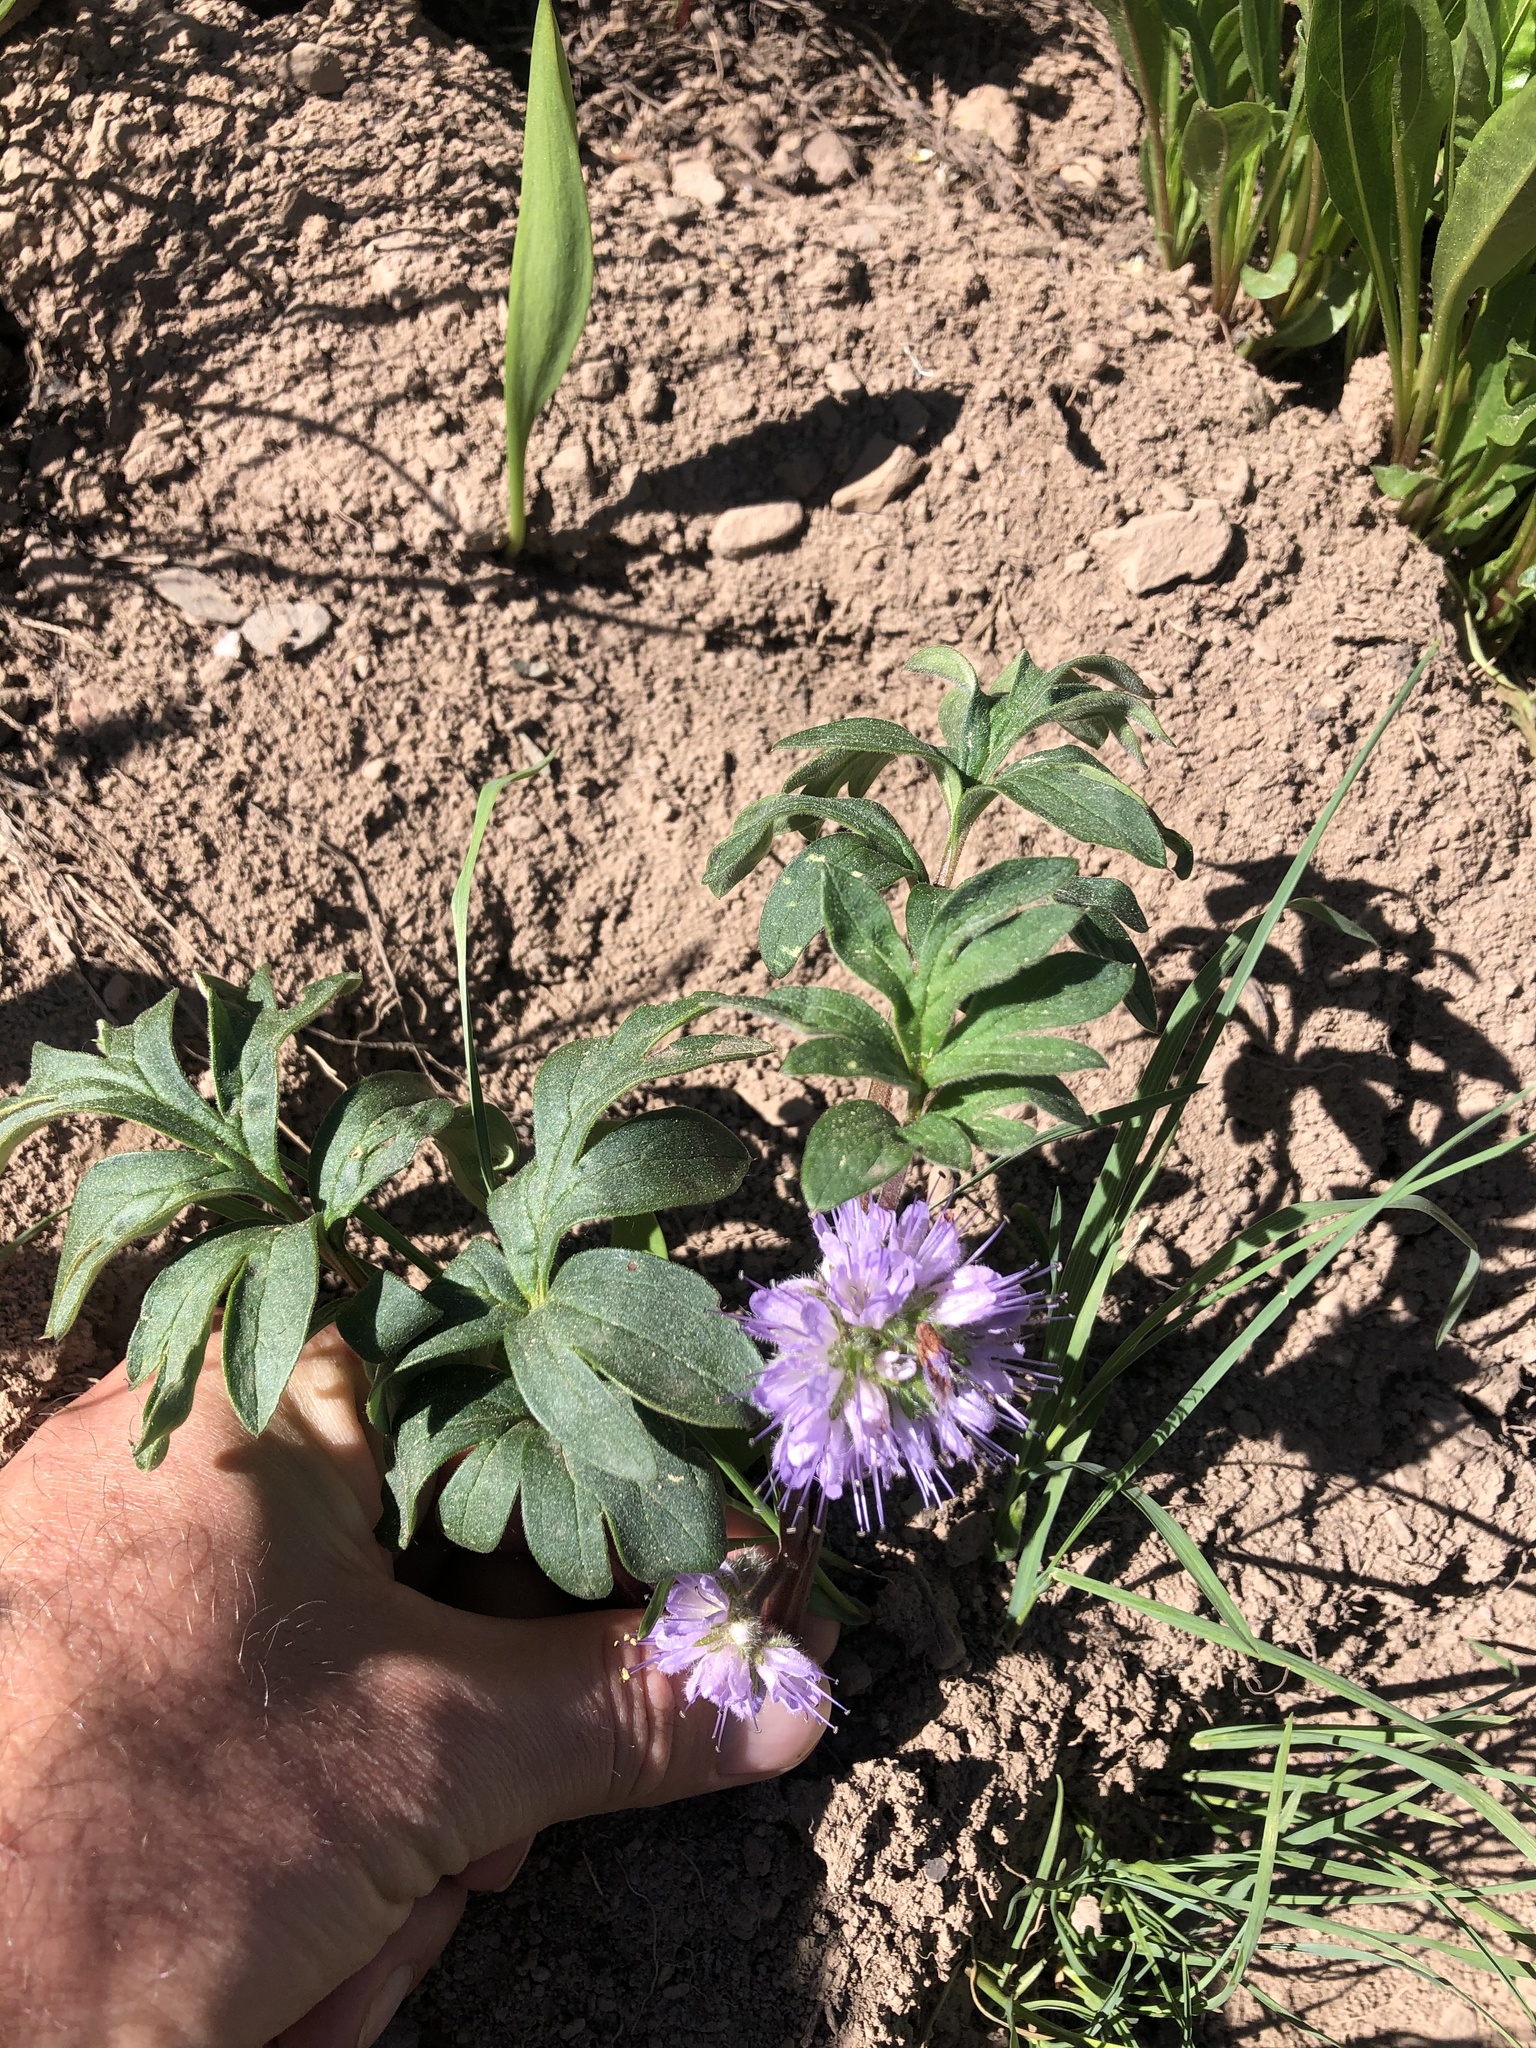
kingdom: Plantae
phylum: Tracheophyta
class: Magnoliopsida
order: Boraginales
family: Hydrophyllaceae
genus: Hydrophyllum
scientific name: Hydrophyllum capitatum
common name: Woollen-breeches
